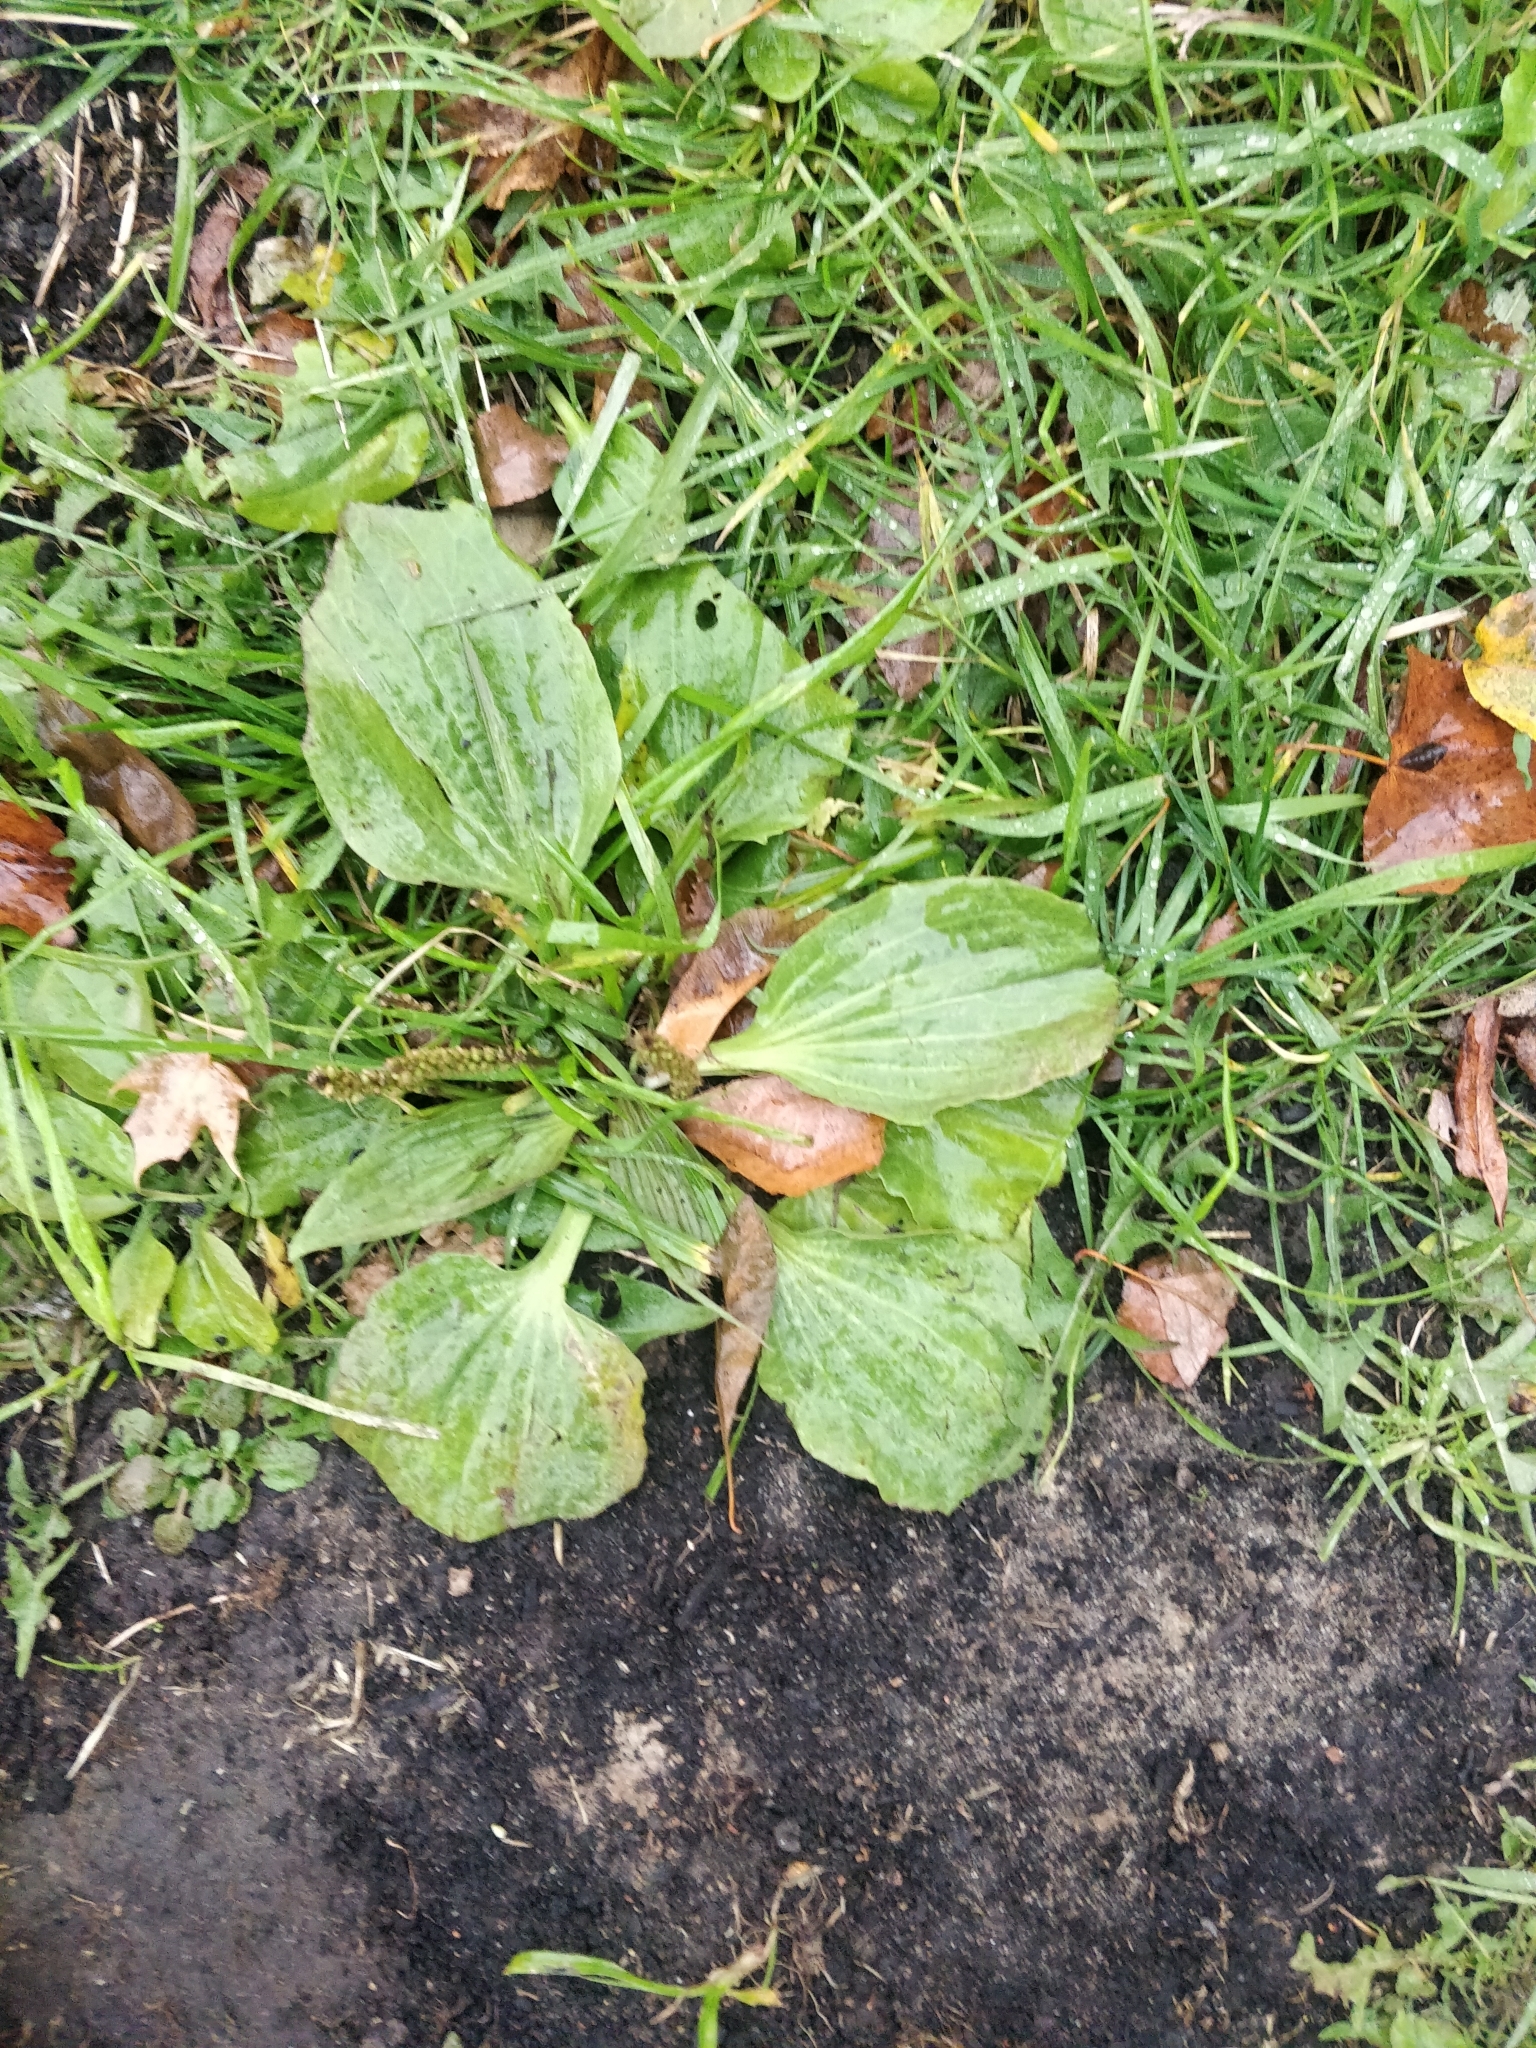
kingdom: Plantae
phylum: Tracheophyta
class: Magnoliopsida
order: Lamiales
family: Plantaginaceae
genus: Plantago
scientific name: Plantago major
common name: Common plantain
